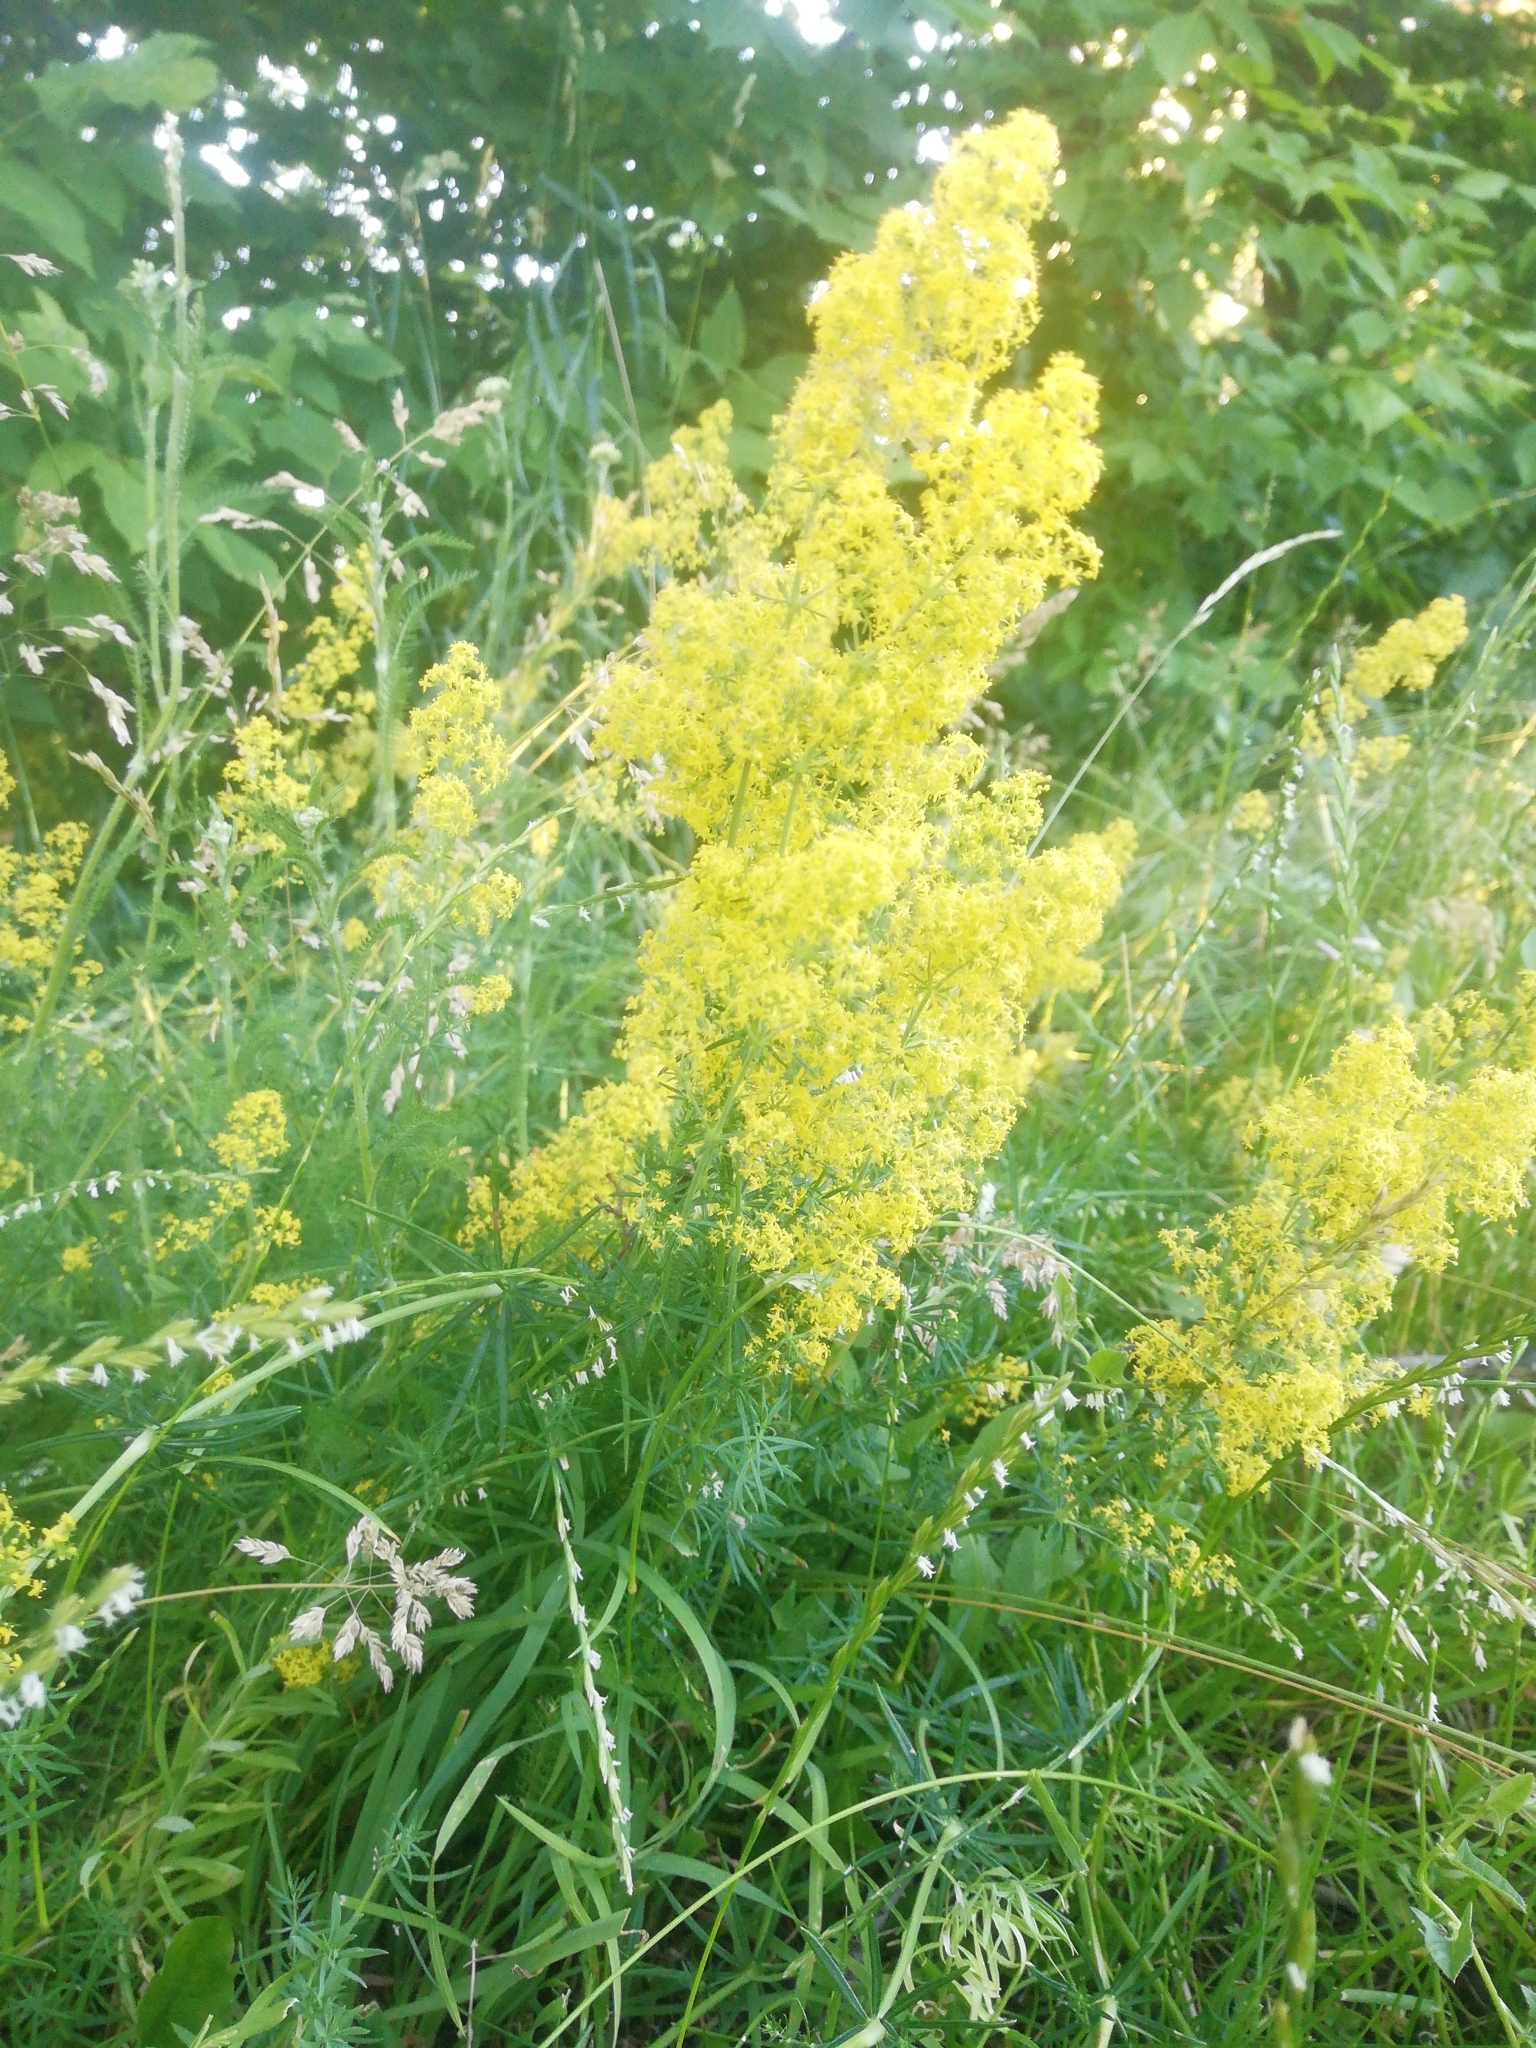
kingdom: Plantae
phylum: Tracheophyta
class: Magnoliopsida
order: Gentianales
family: Rubiaceae
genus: Galium
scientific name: Galium verum
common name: Lady's bedstraw
